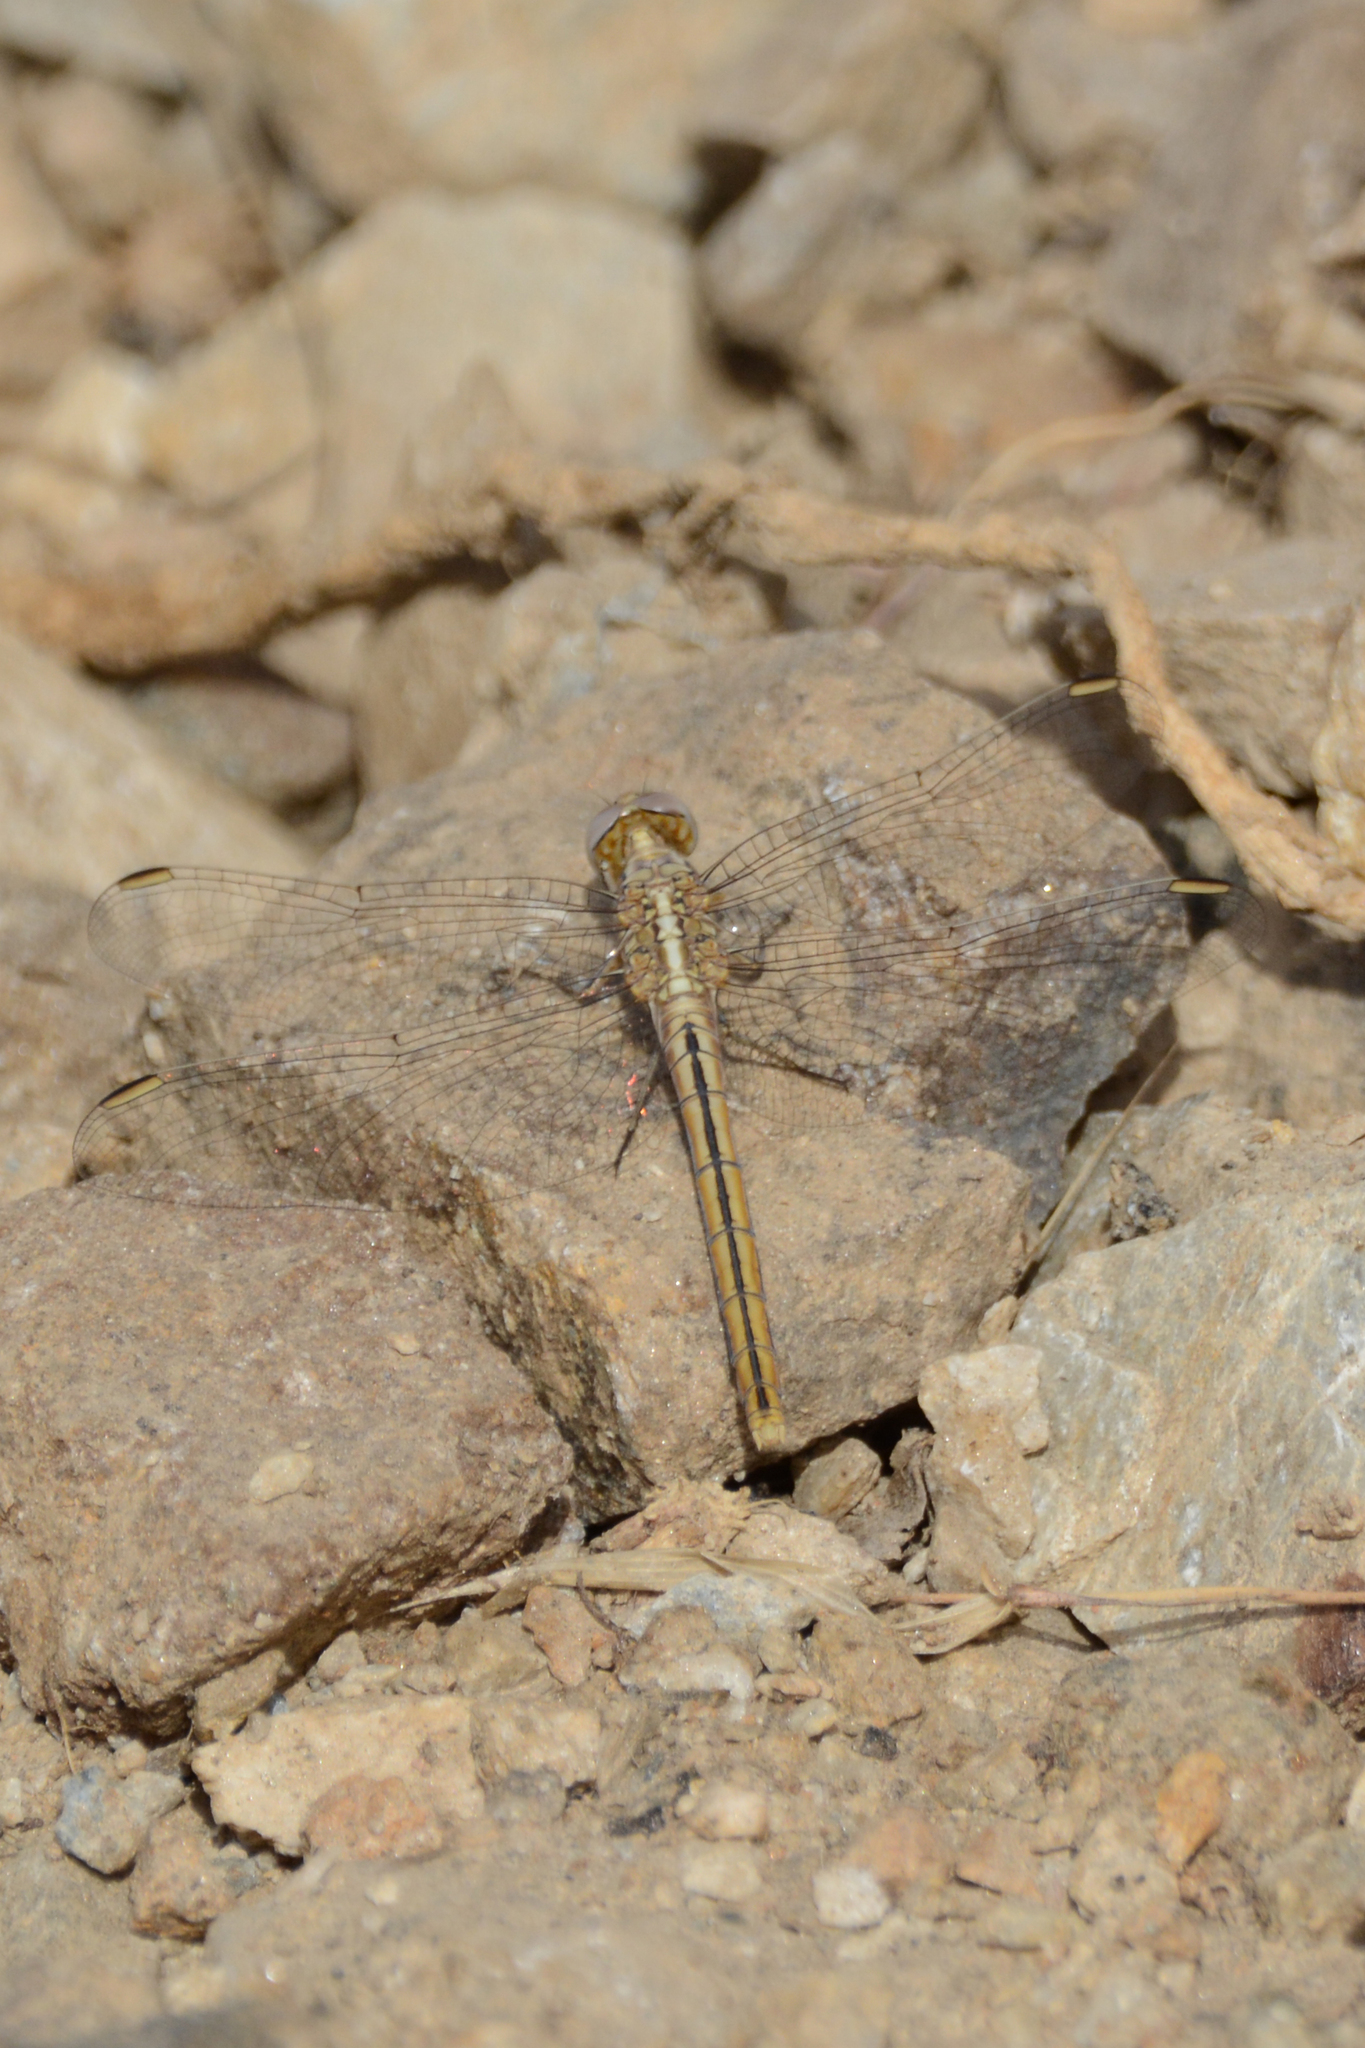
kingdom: Animalia
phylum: Arthropoda
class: Insecta
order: Odonata
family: Libellulidae
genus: Orthetrum
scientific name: Orthetrum taeniolatum
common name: Small skimmer
